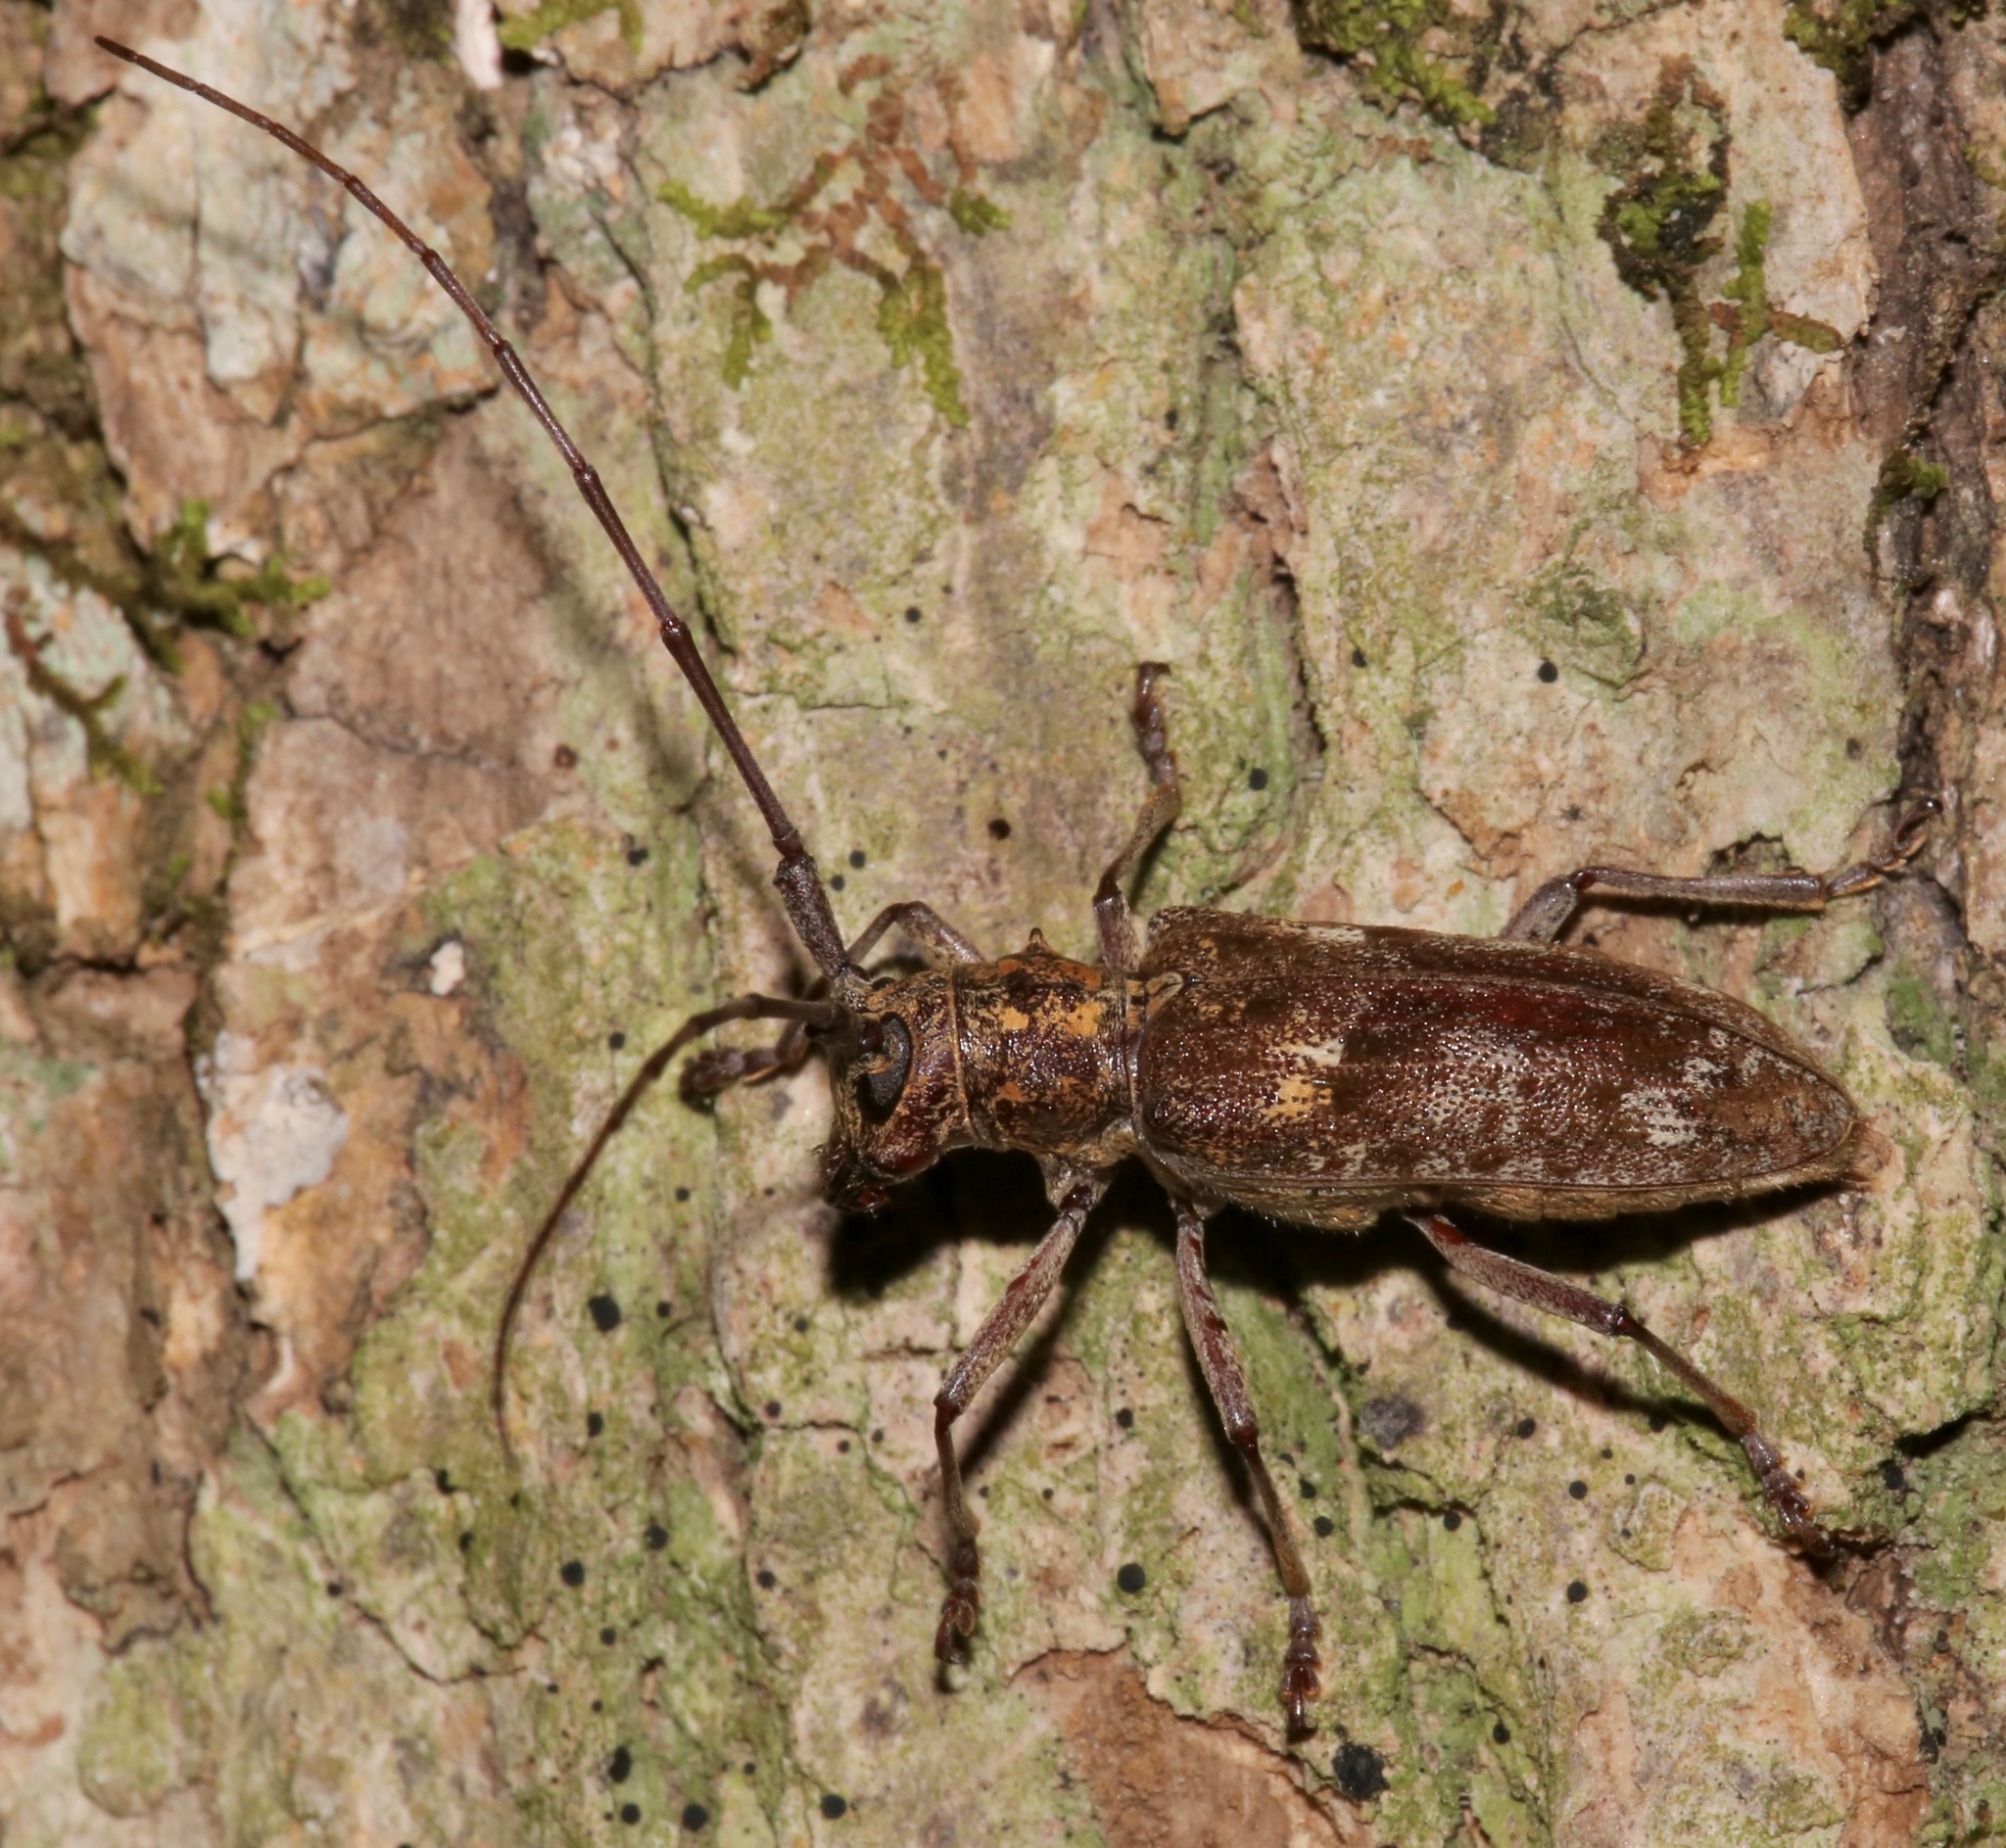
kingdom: Animalia
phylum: Arthropoda
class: Insecta
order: Coleoptera
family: Cerambycidae
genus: Monochamus
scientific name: Monochamus carolinensis
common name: Carolina pine sawyer
